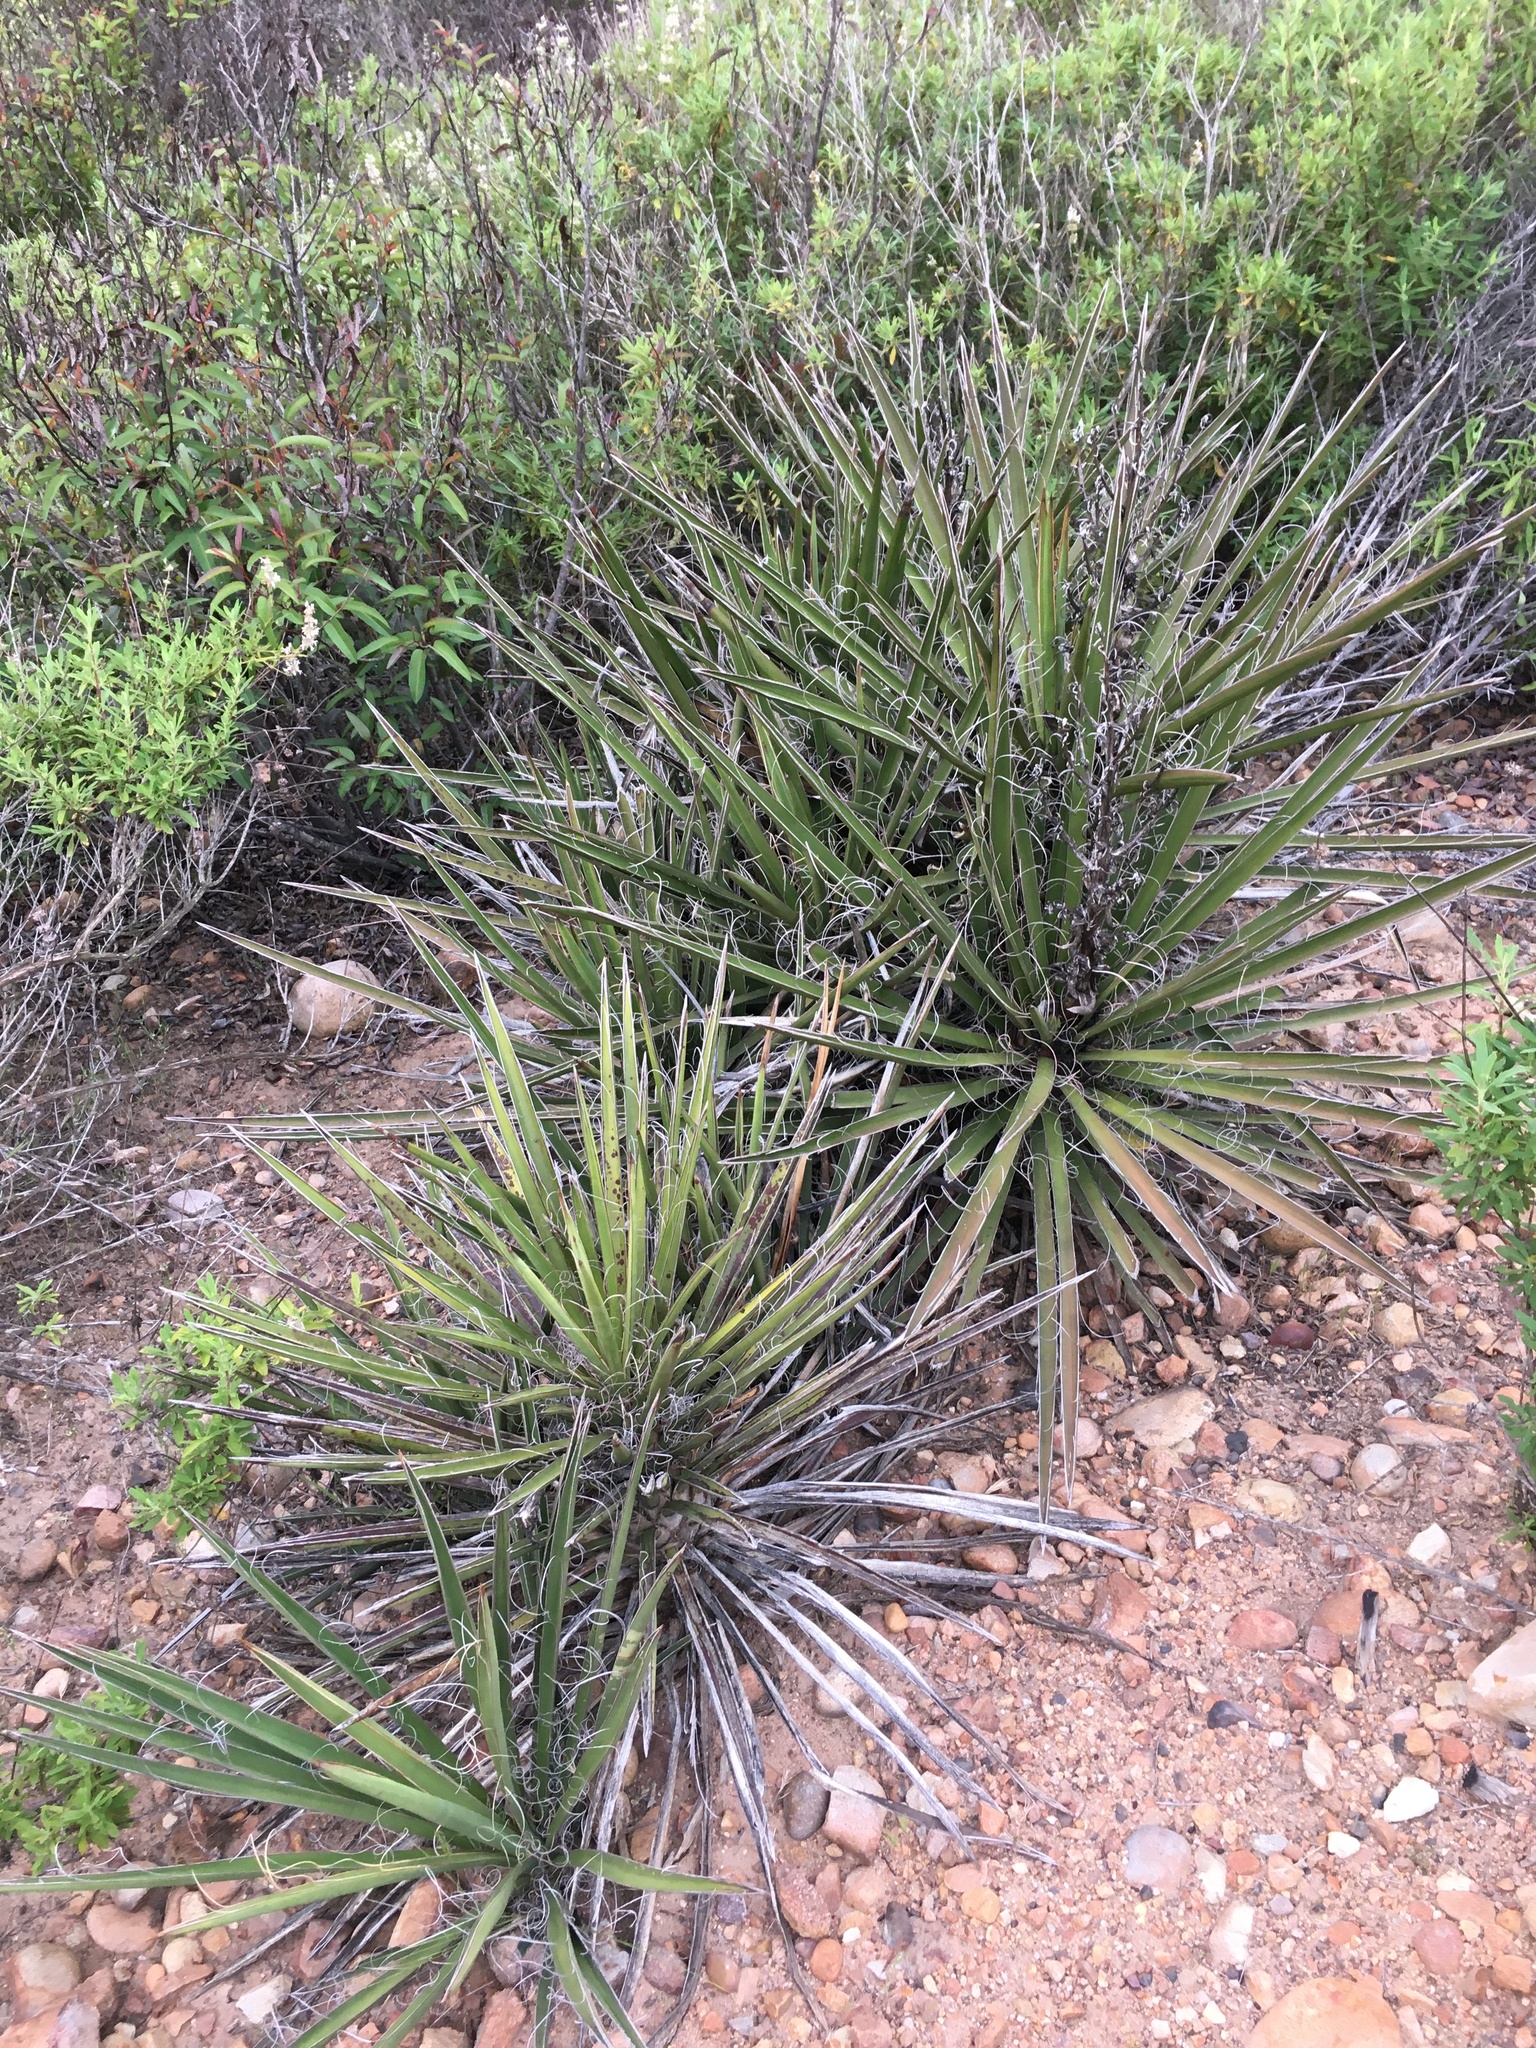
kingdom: Plantae
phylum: Tracheophyta
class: Liliopsida
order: Asparagales
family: Asparagaceae
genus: Yucca
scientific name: Yucca schidigera
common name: Mojave yucca
